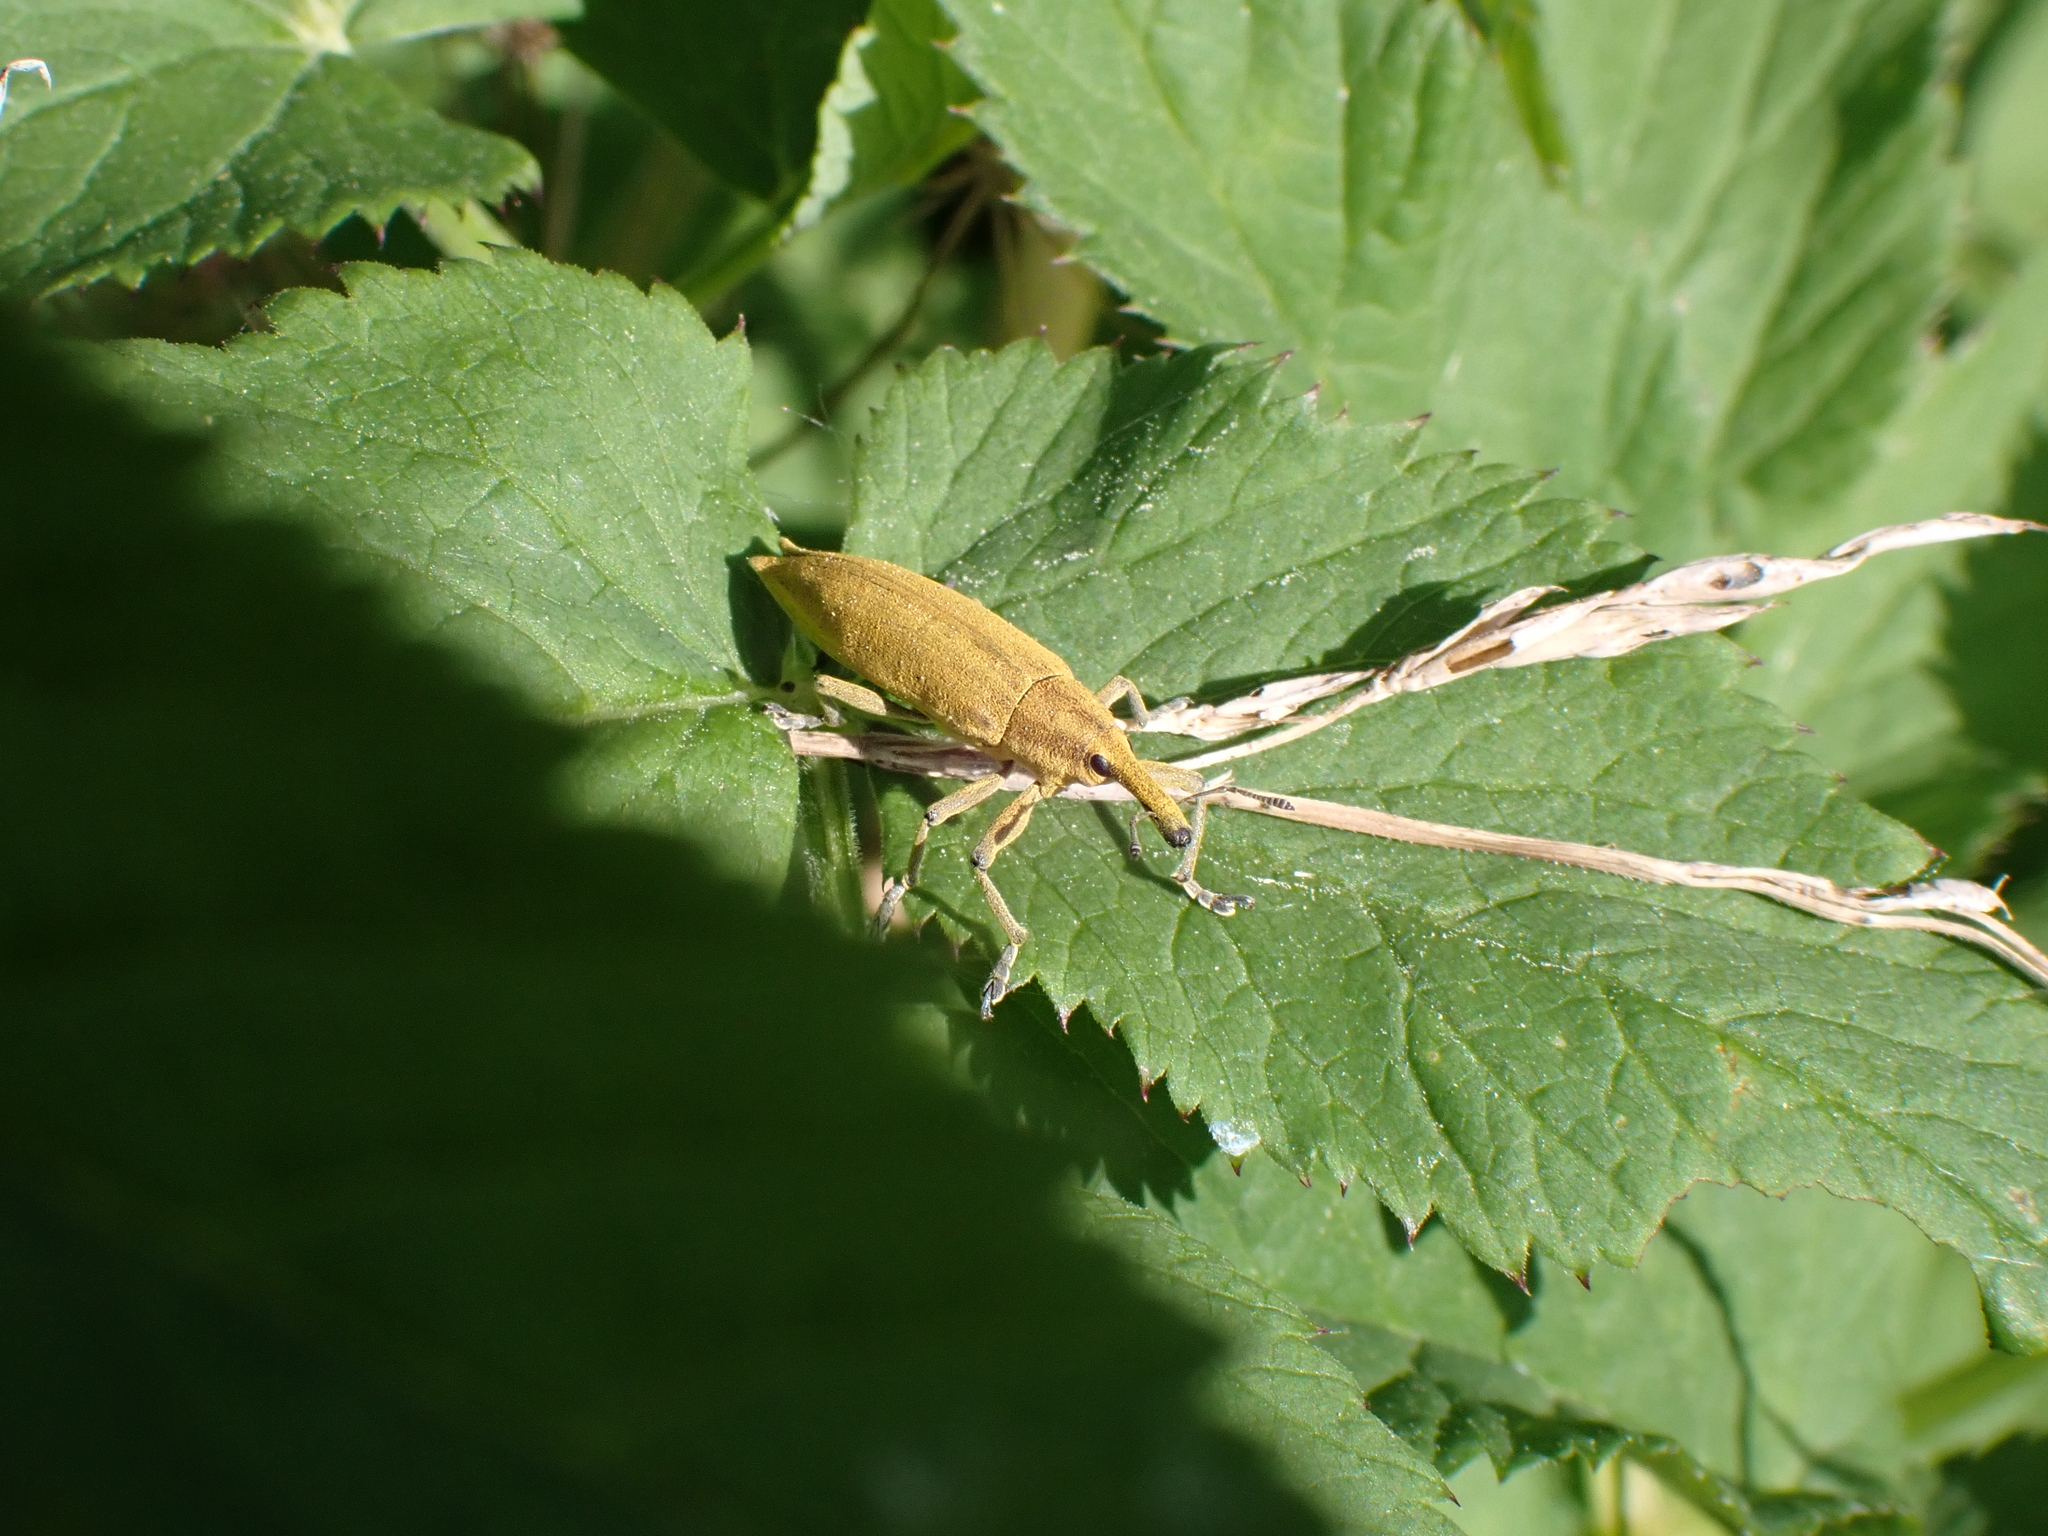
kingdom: Animalia
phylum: Arthropoda
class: Insecta
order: Coleoptera
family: Curculionidae
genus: Lixus
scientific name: Lixus iridis
